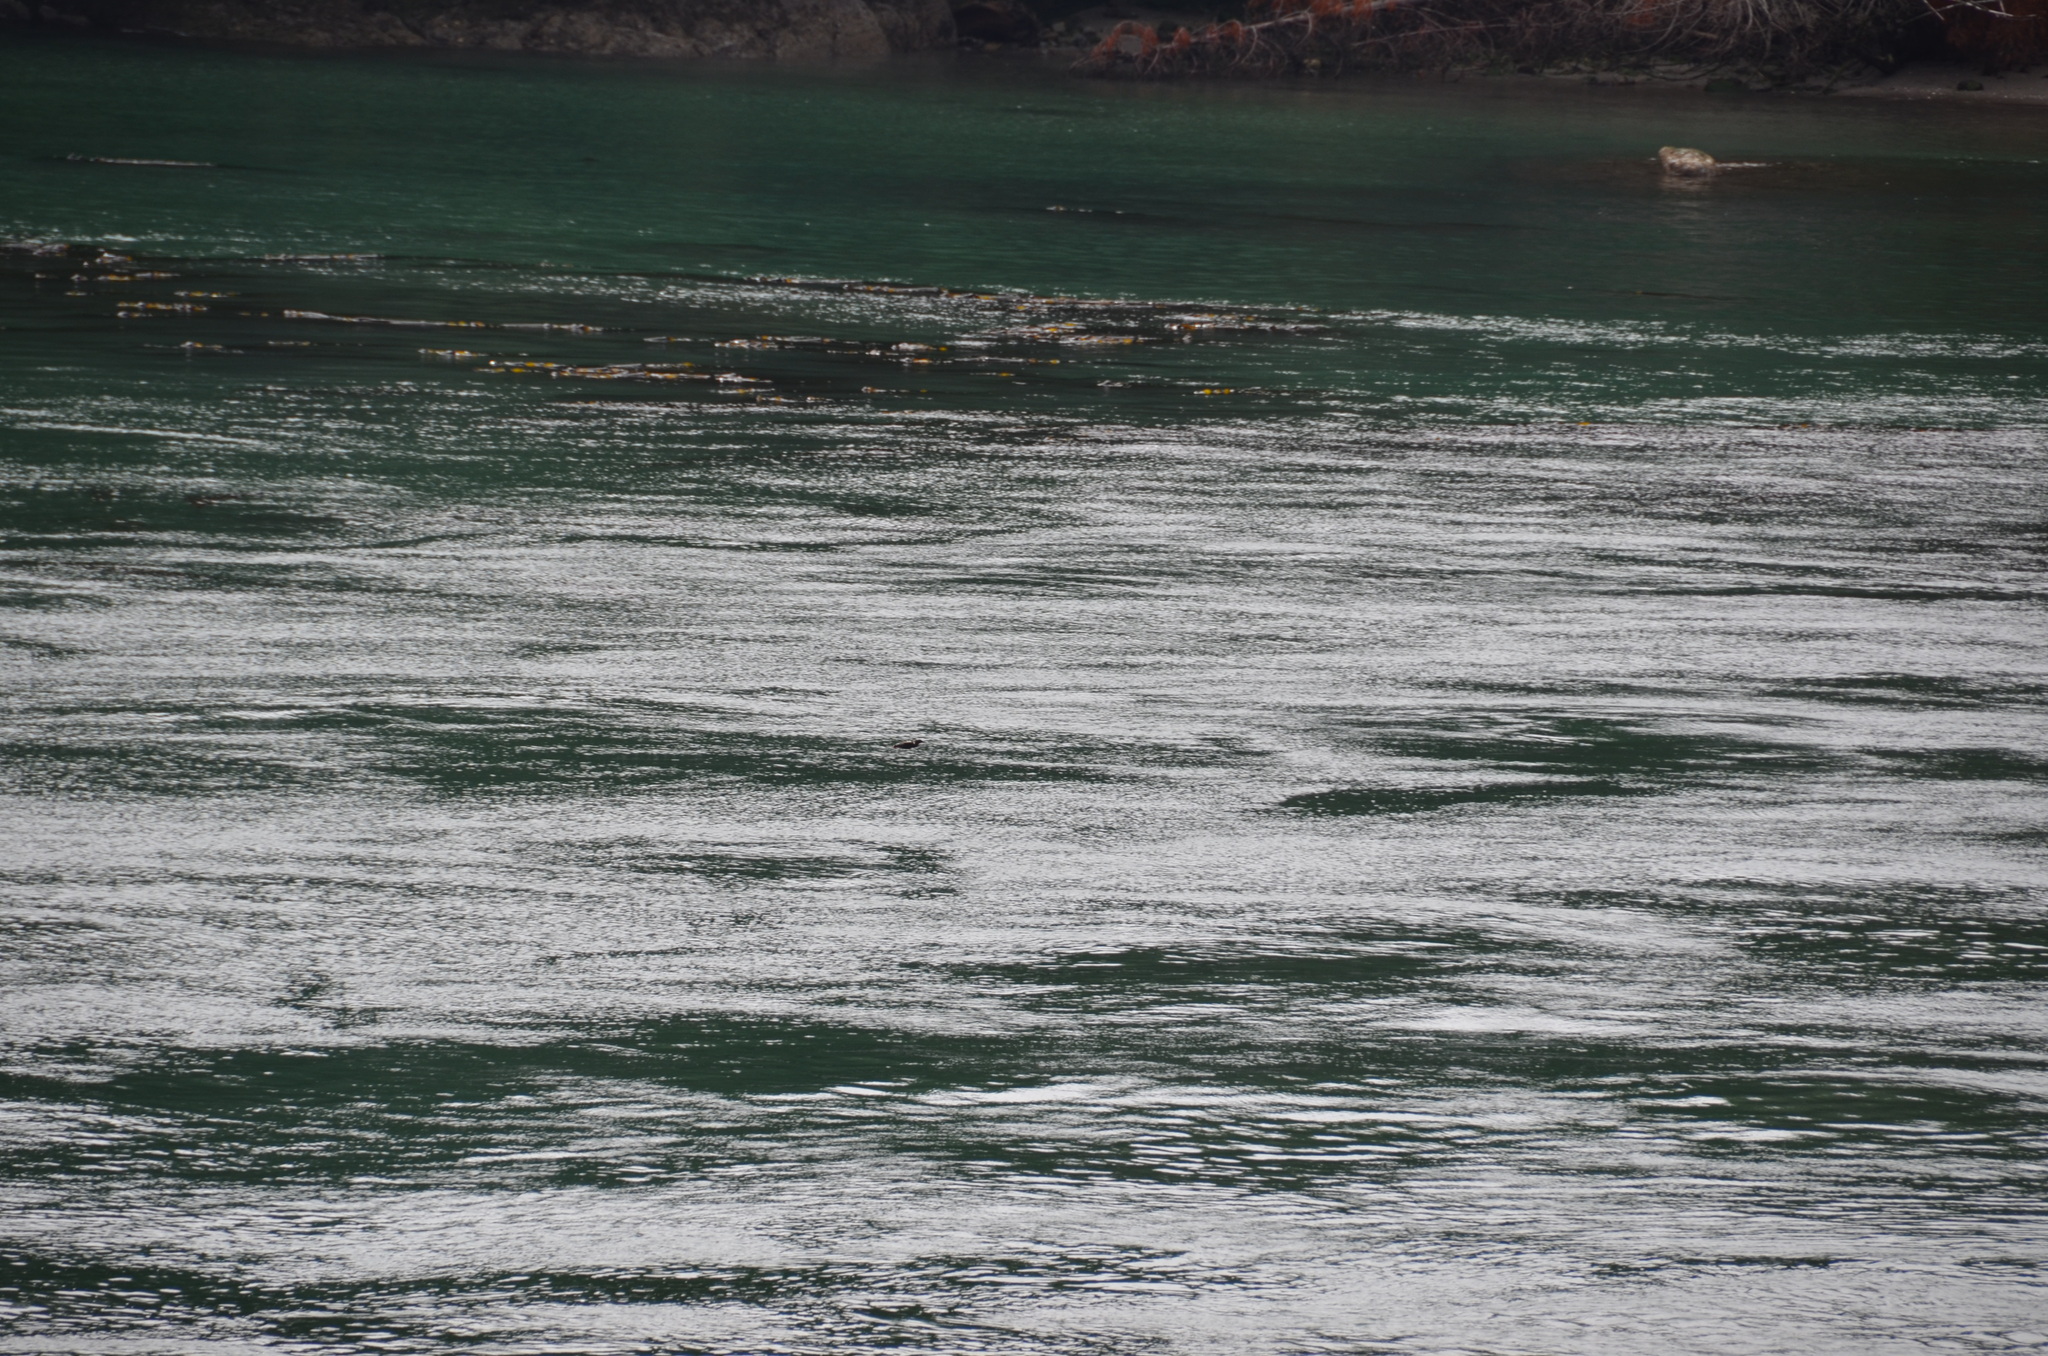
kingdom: Animalia
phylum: Chordata
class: Aves
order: Charadriiformes
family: Alcidae
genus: Cepphus
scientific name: Cepphus columba
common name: Pigeon guillemot
